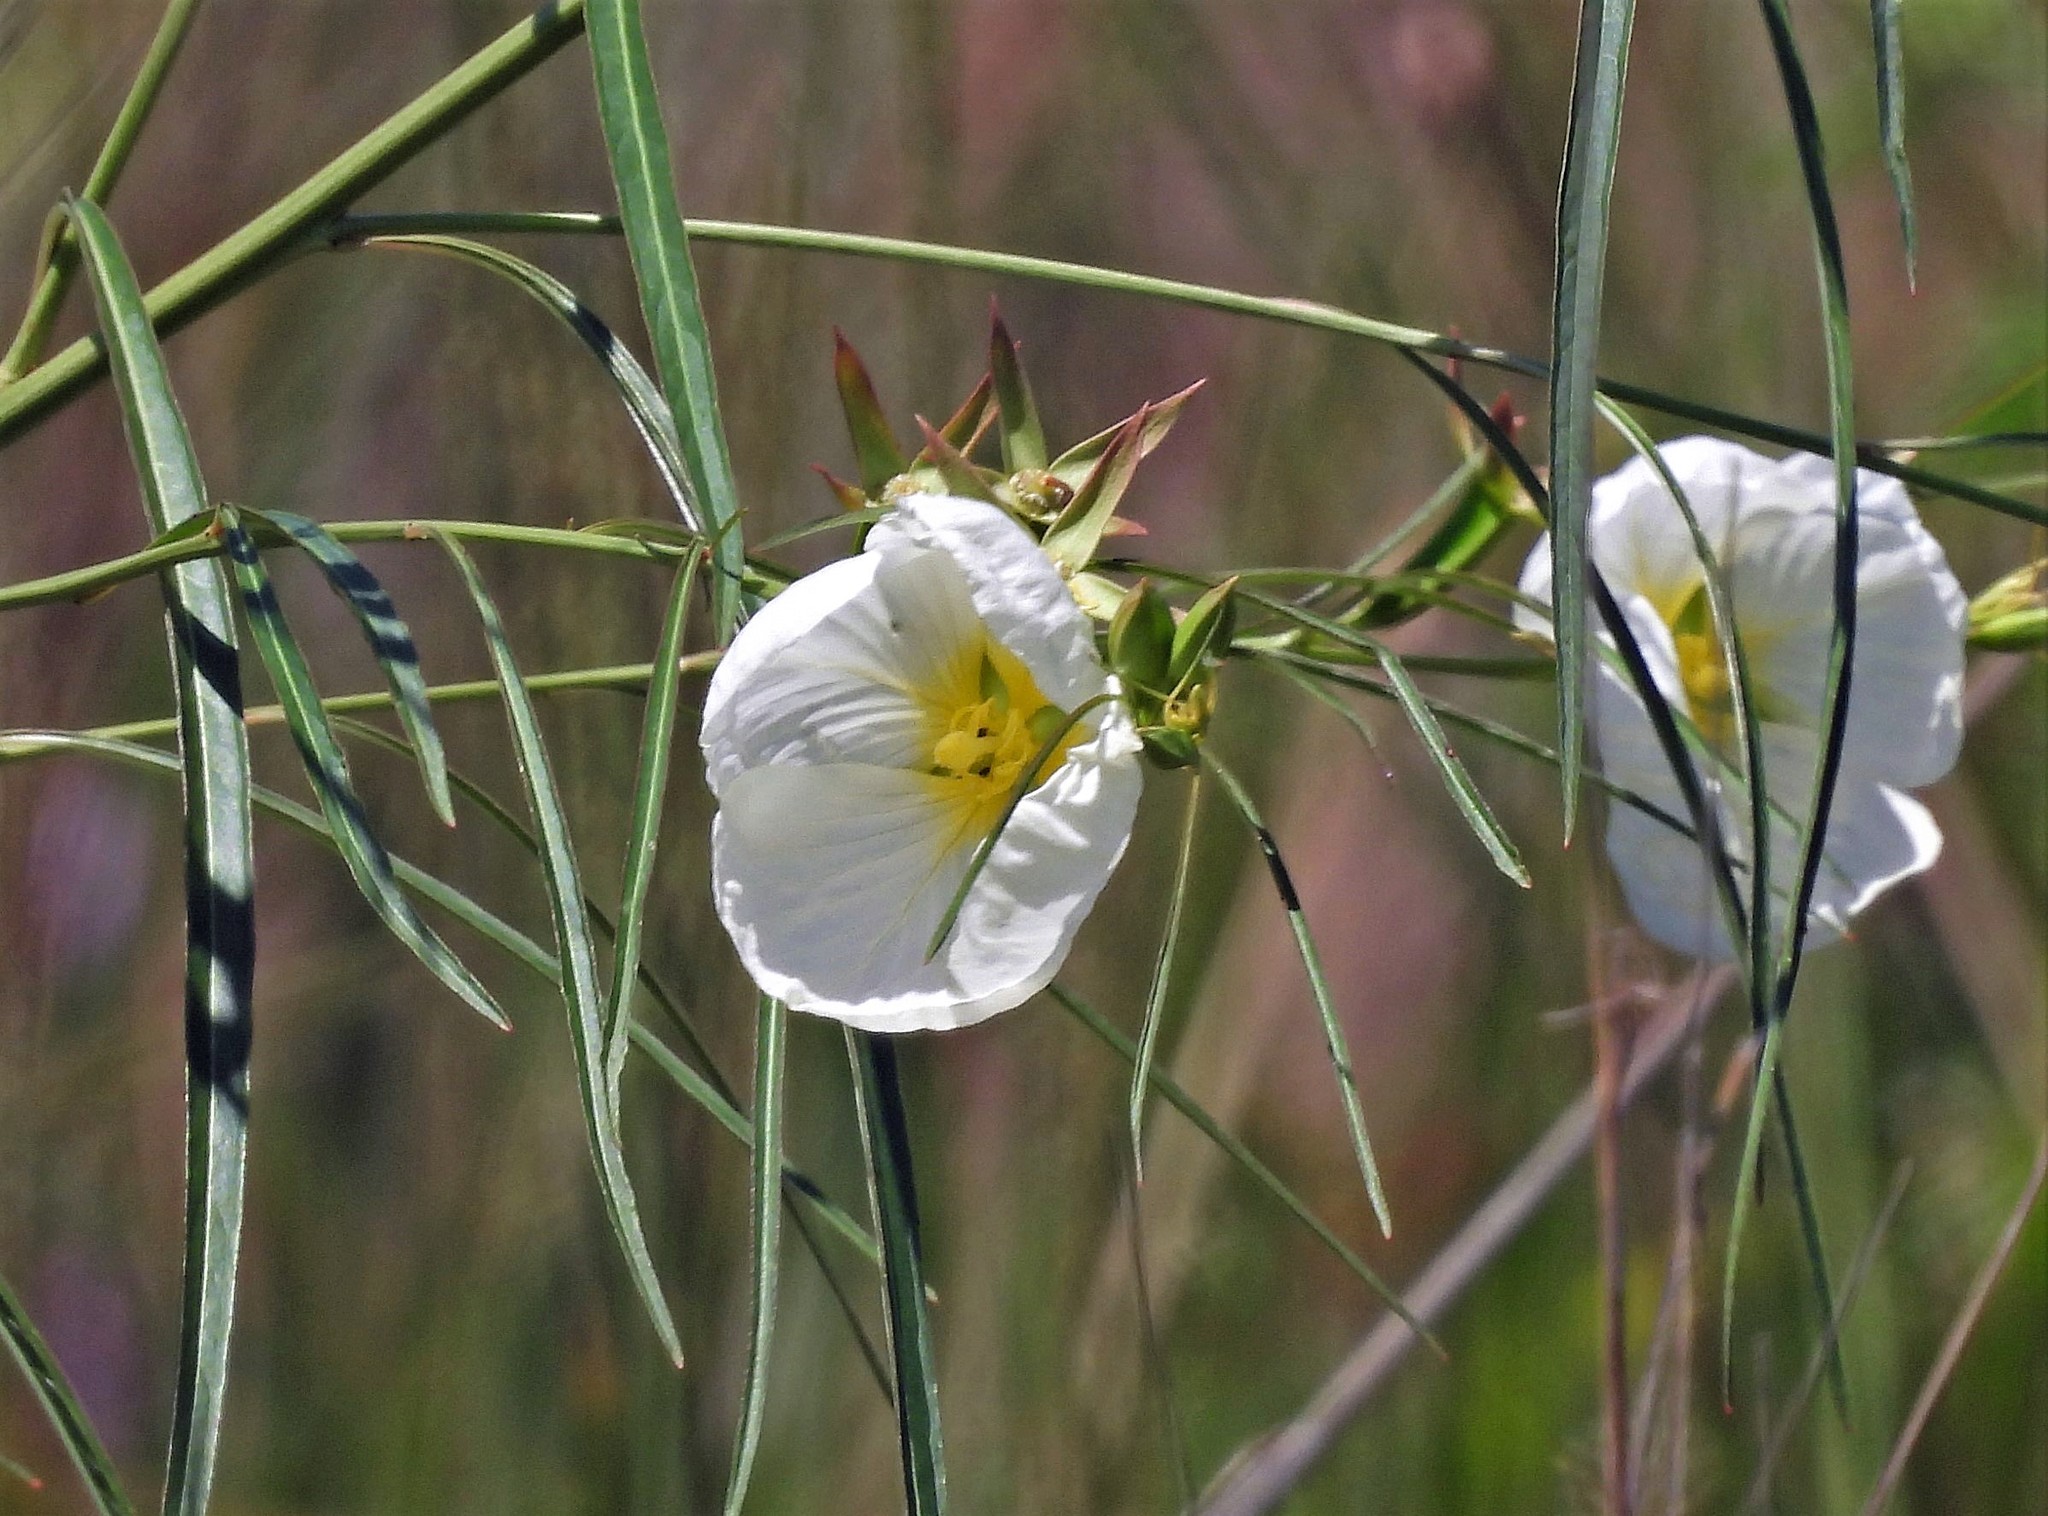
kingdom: Plantae
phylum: Tracheophyta
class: Magnoliopsida
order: Myrtales
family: Onagraceae
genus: Ludwigia
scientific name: Ludwigia major
